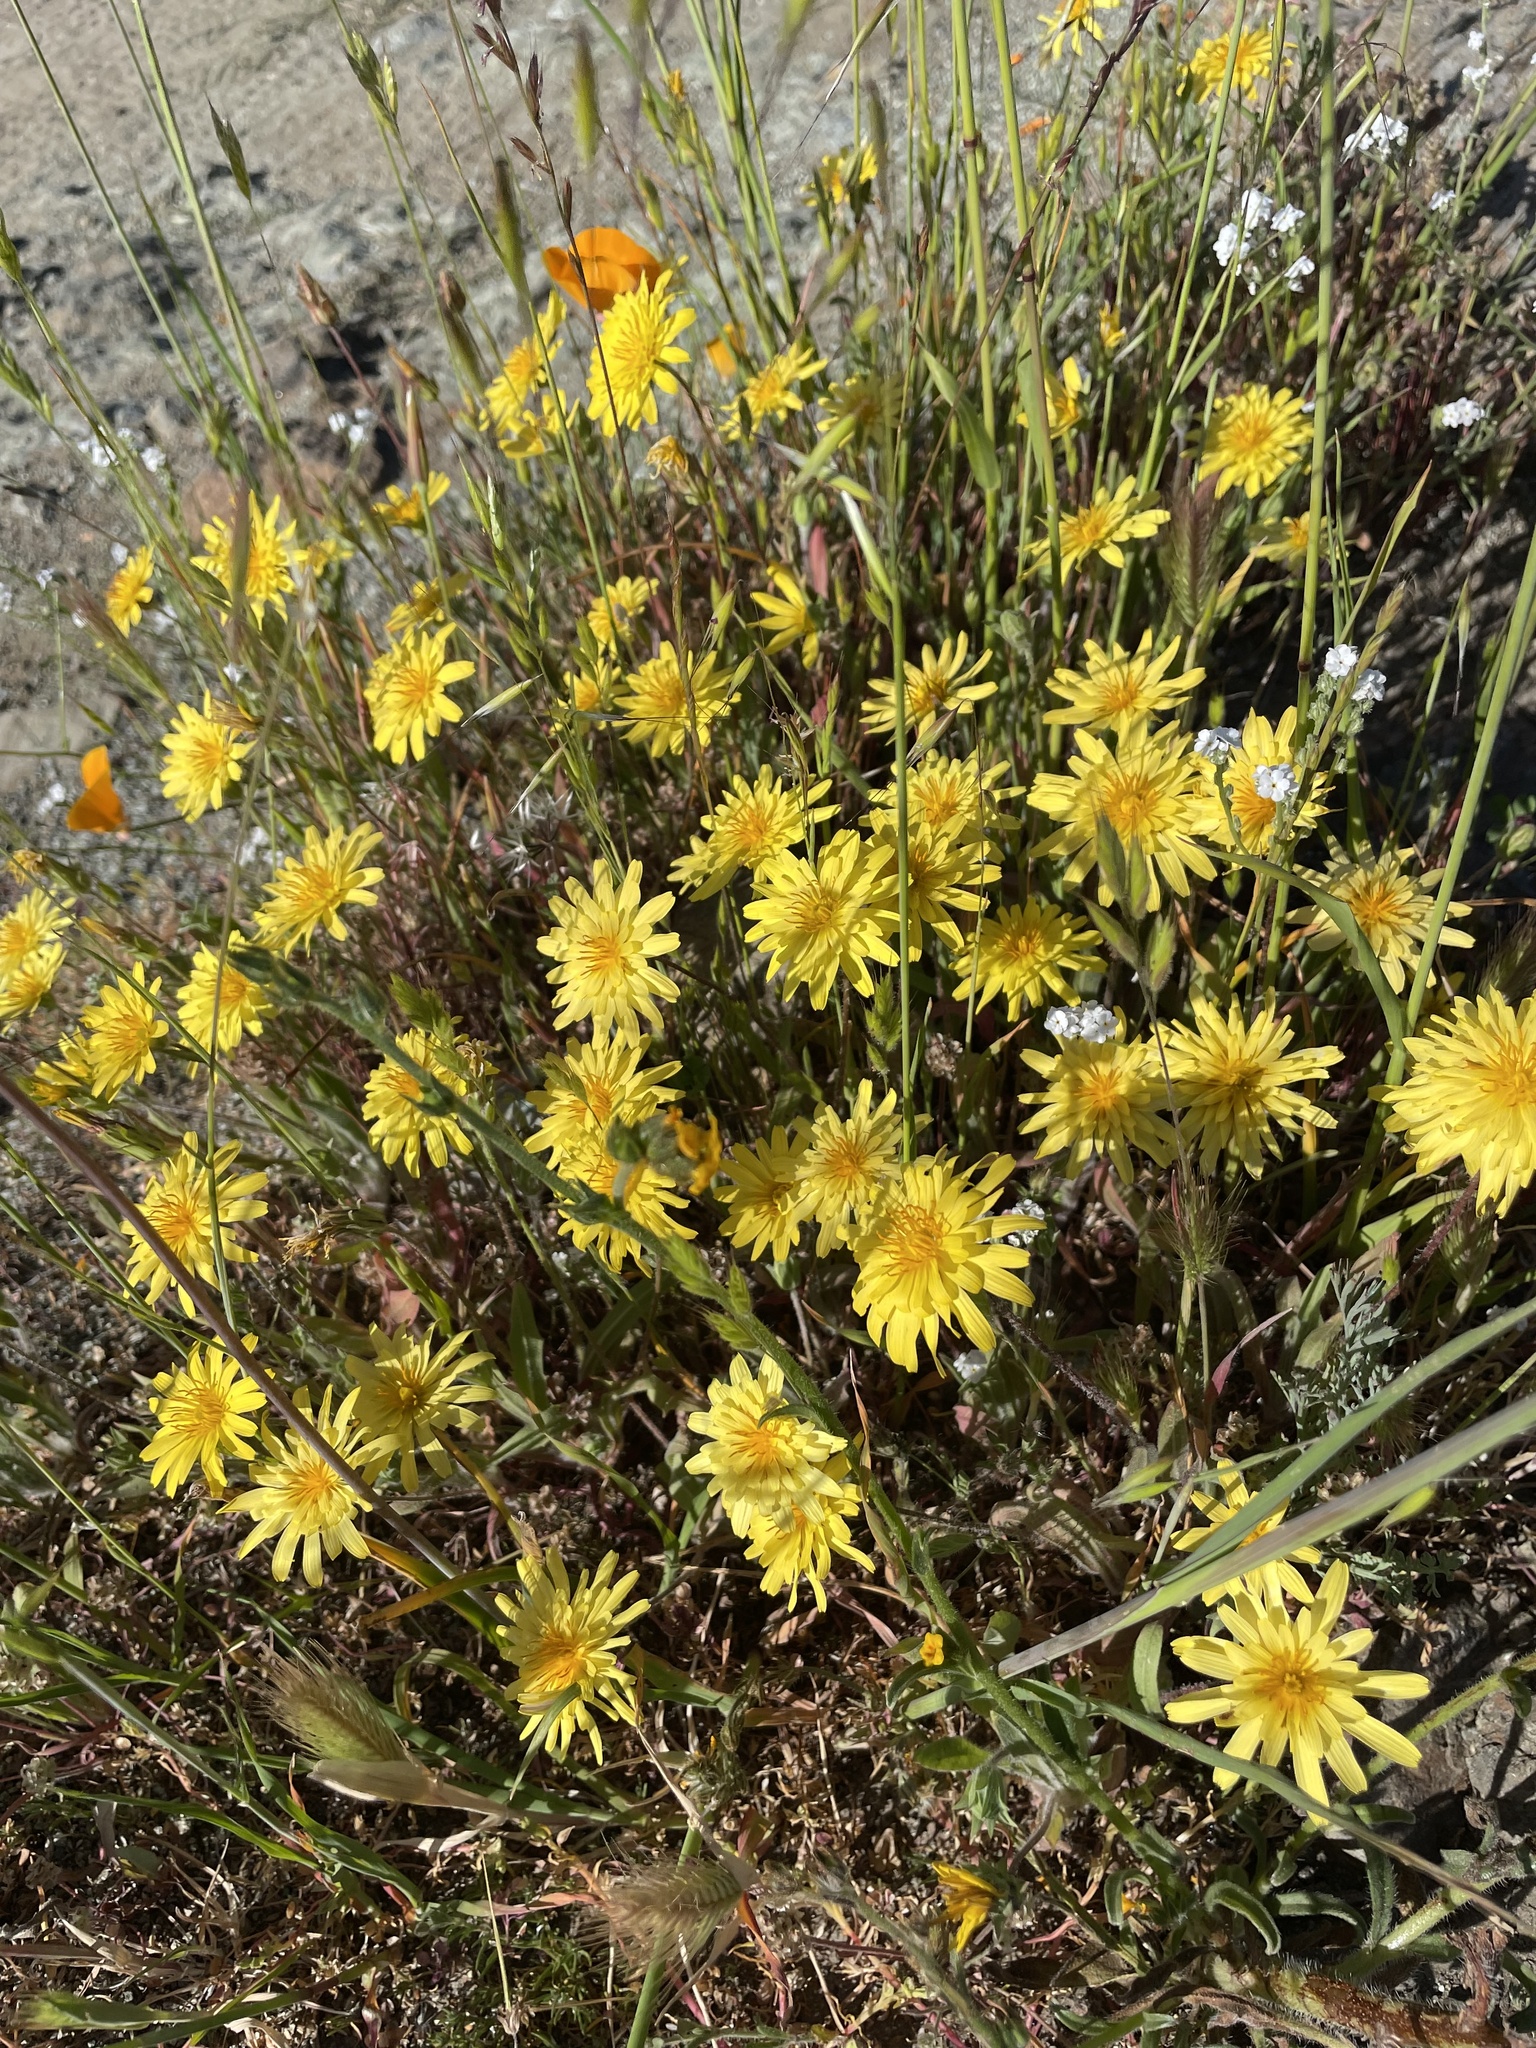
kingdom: Plantae
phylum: Tracheophyta
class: Magnoliopsida
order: Asterales
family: Asteraceae
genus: Agoseris
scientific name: Agoseris heterophylla
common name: Annual agoseris
